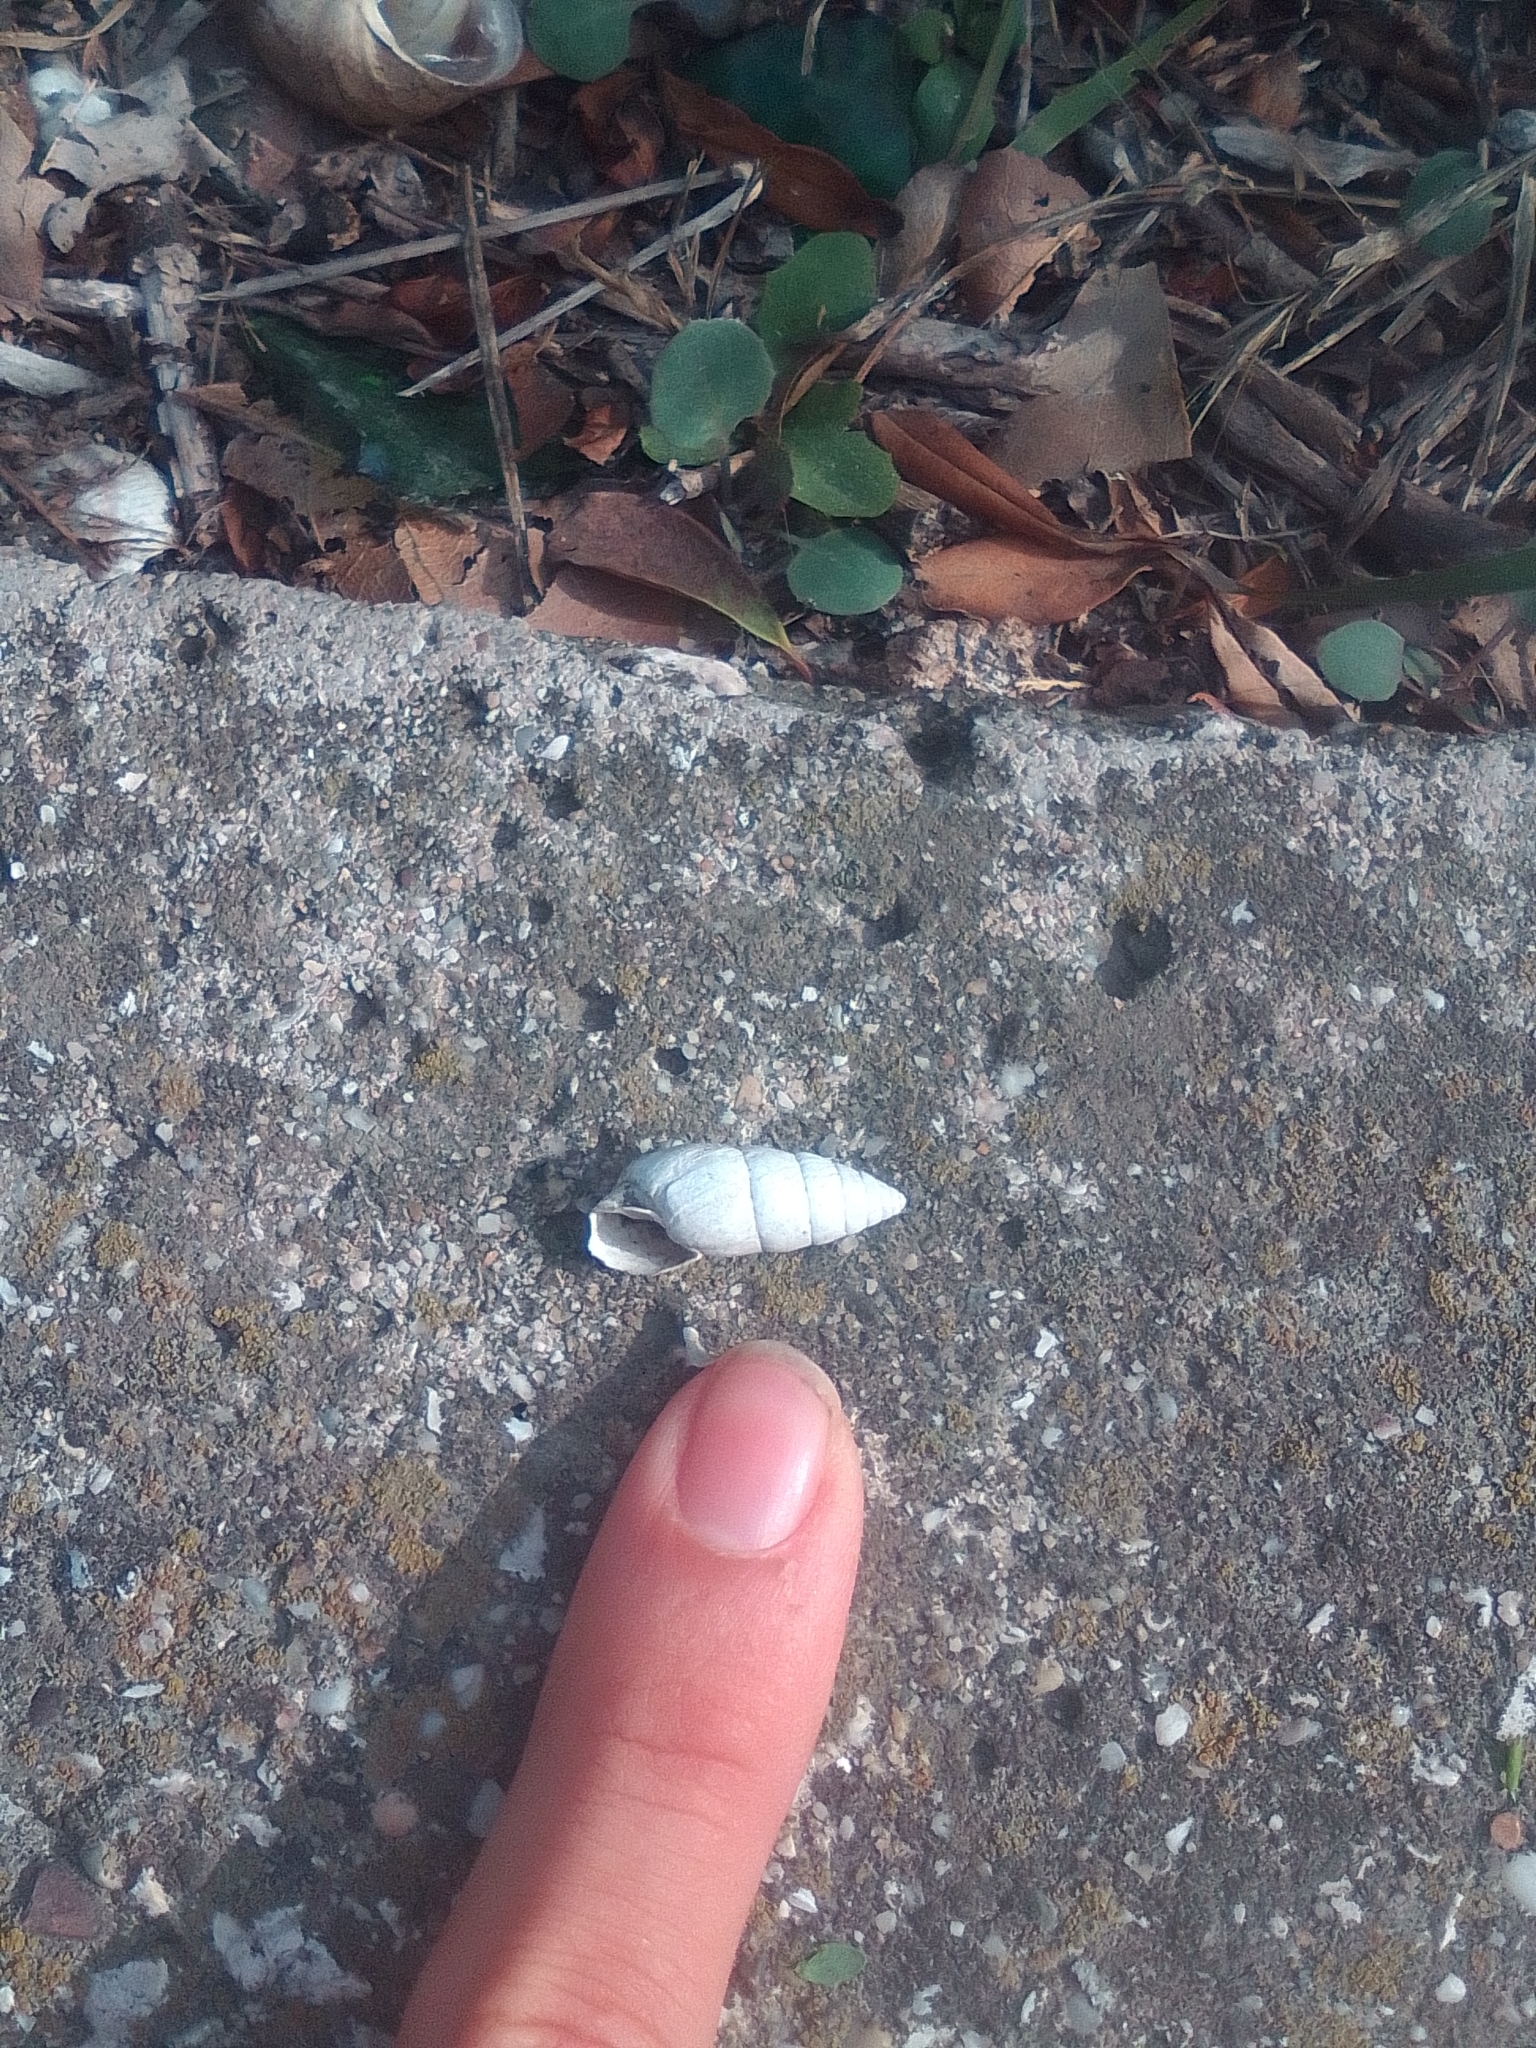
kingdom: Animalia
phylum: Mollusca
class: Gastropoda
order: Stylommatophora
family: Enidae
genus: Brephulopsis
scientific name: Brephulopsis cylindrica
